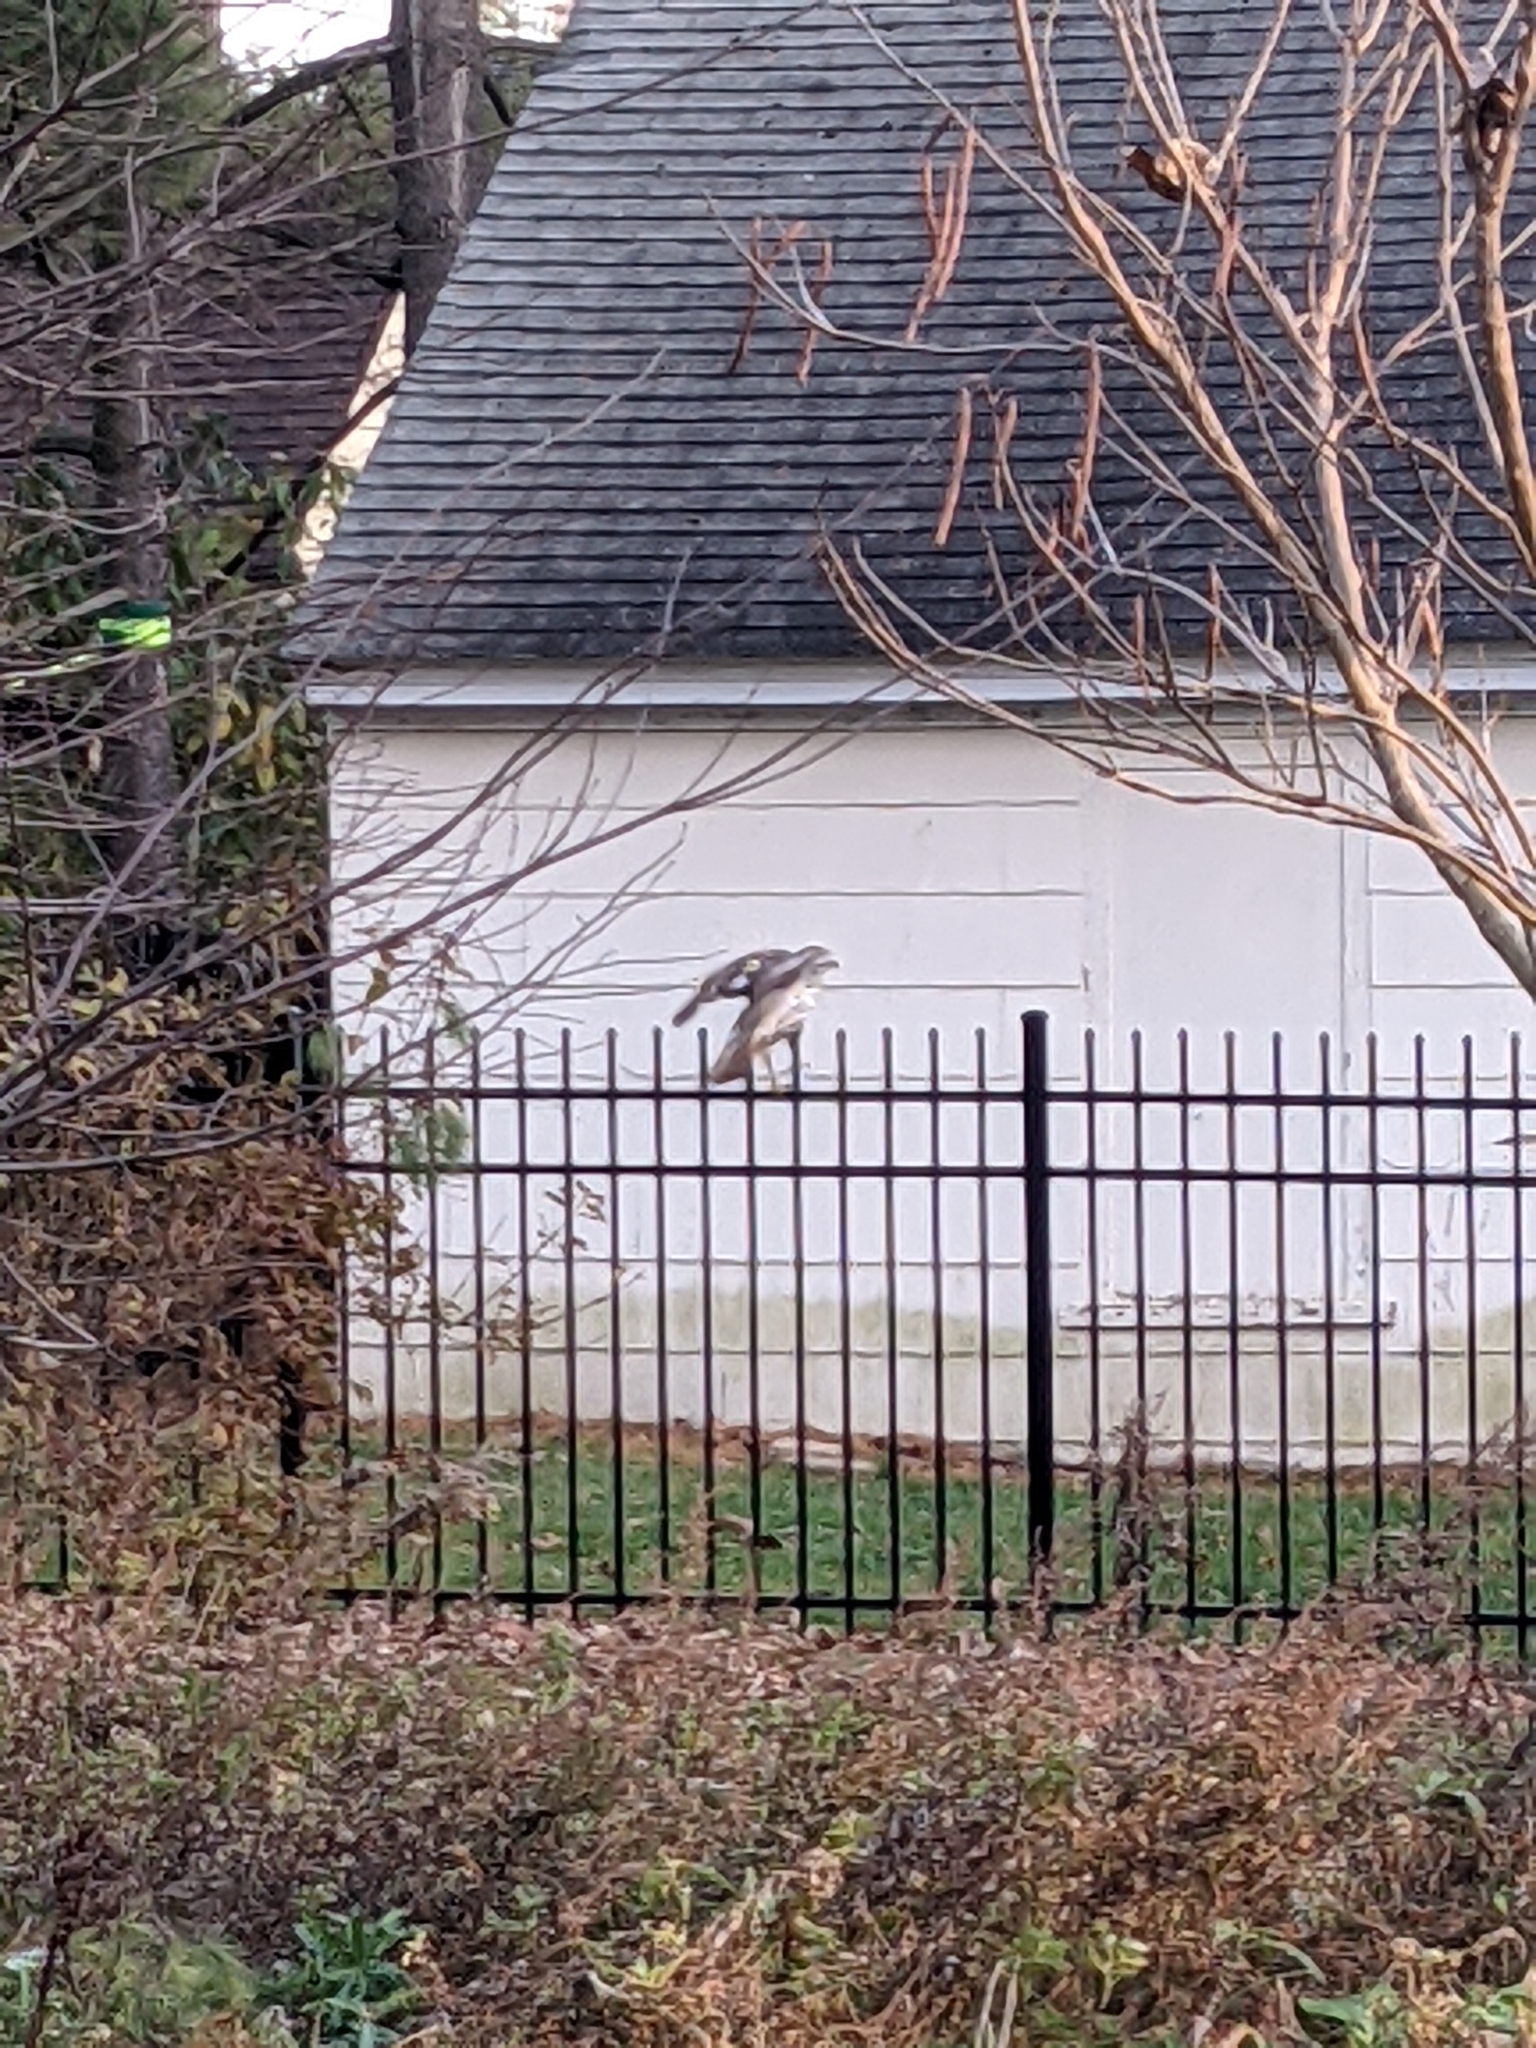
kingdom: Animalia
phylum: Chordata
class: Aves
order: Accipitriformes
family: Accipitridae
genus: Buteo
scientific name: Buteo jamaicensis
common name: Red-tailed hawk
